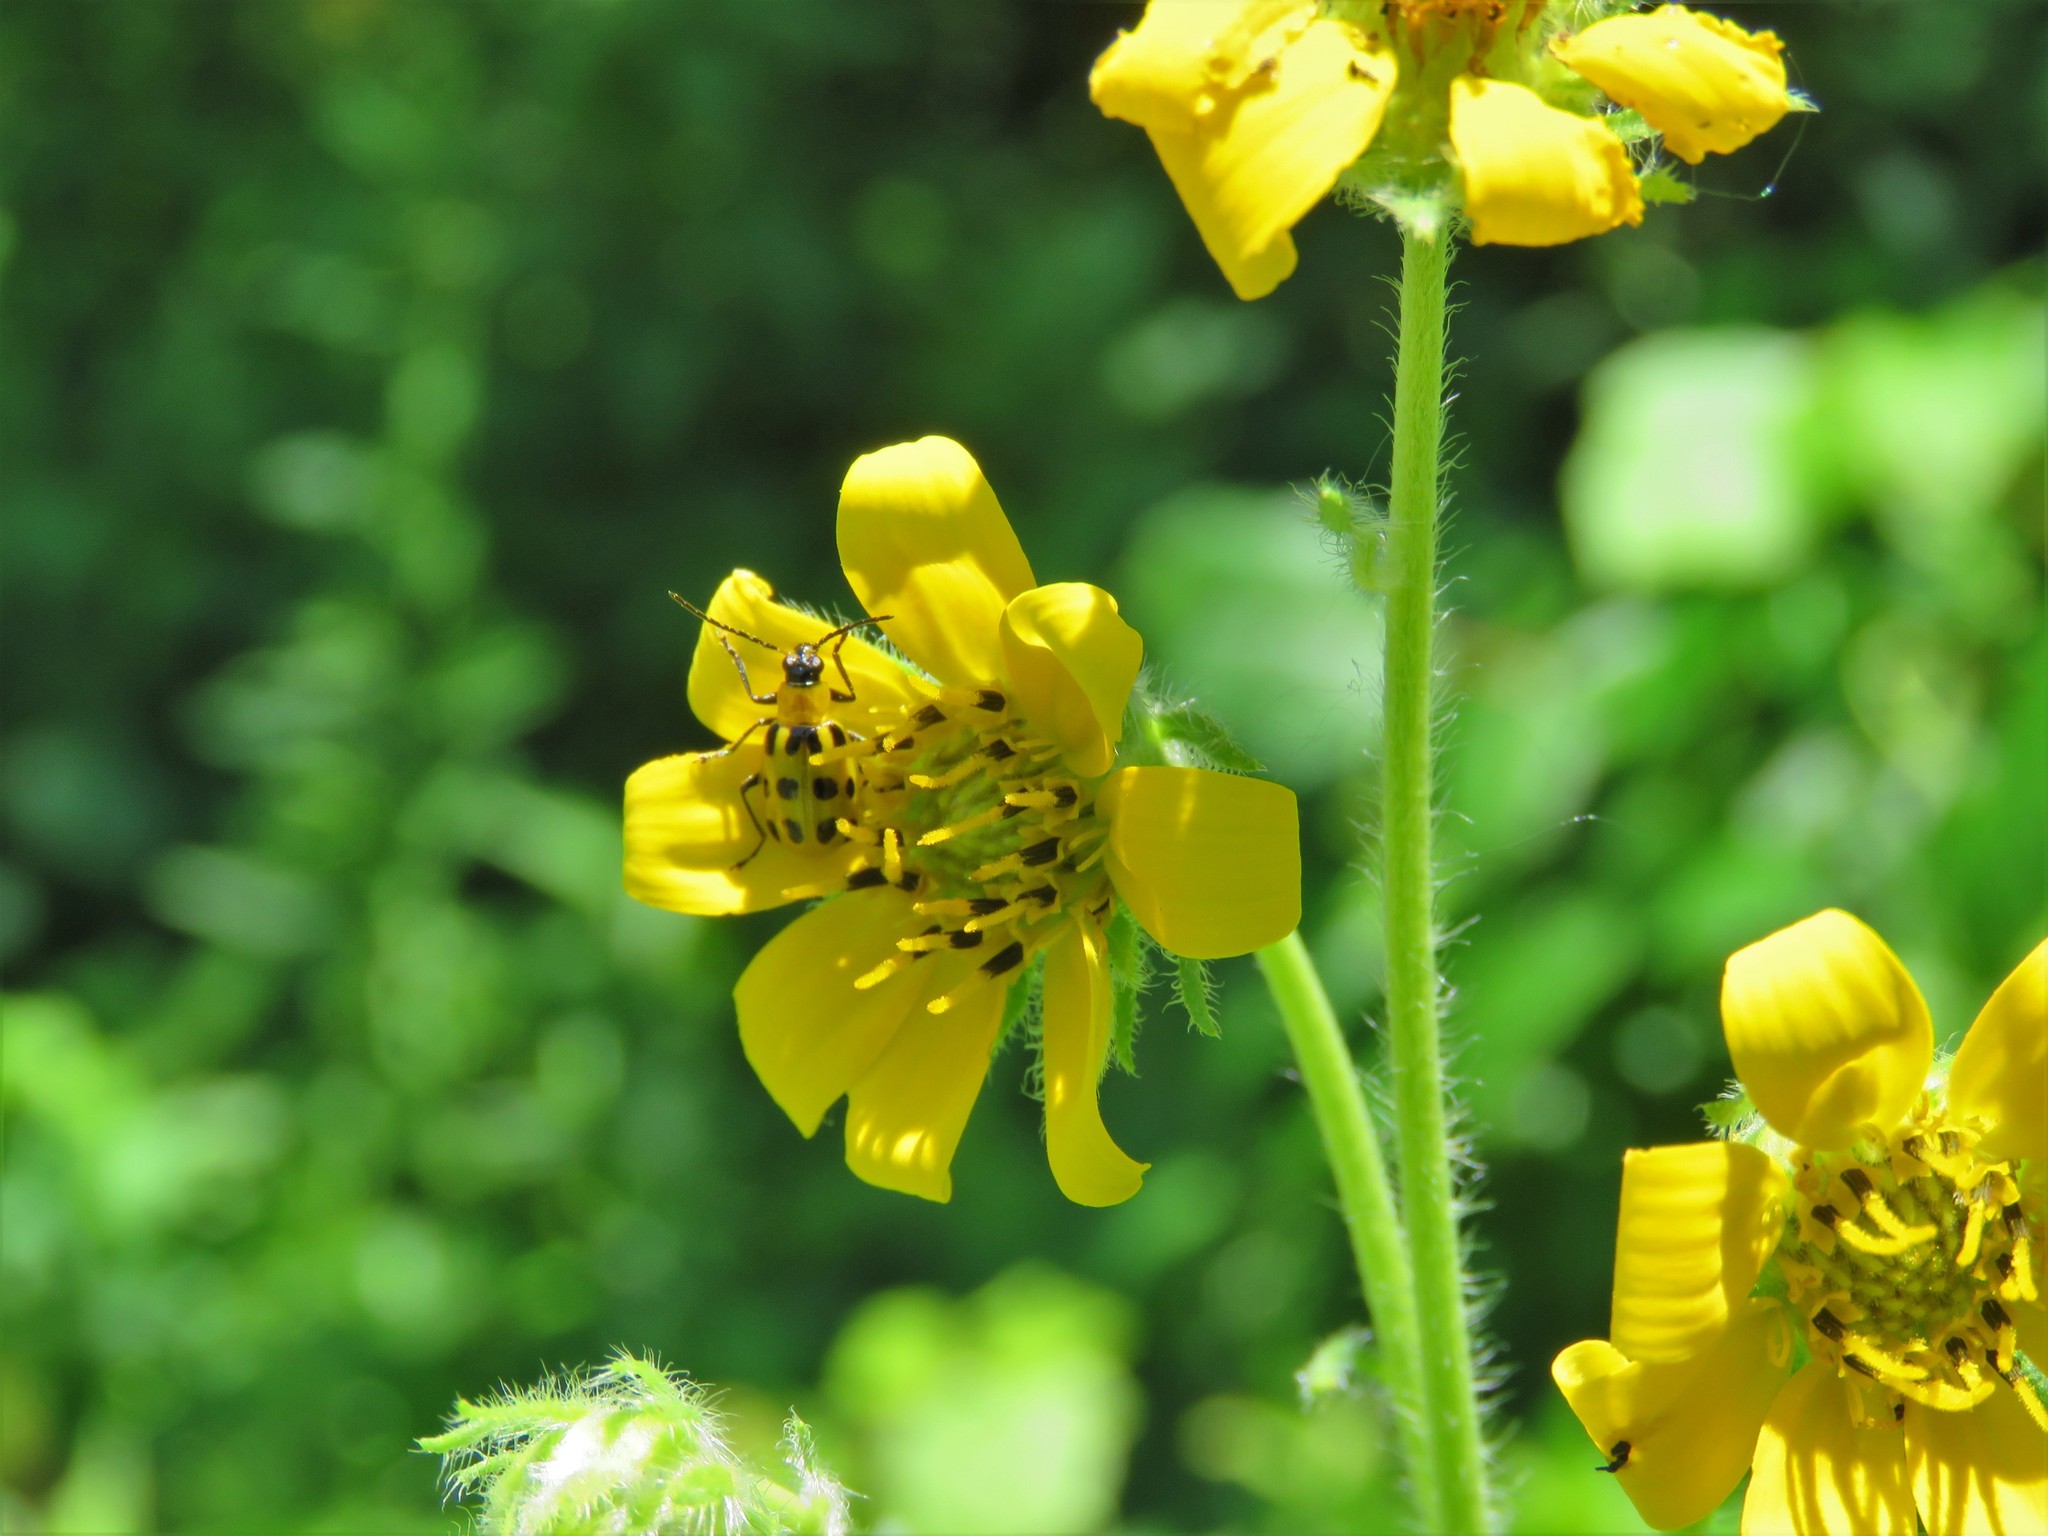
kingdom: Plantae
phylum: Tracheophyta
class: Magnoliopsida
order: Asterales
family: Asteraceae
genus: Engelmannia
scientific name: Engelmannia peristenia
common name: Engelmann's daisy
